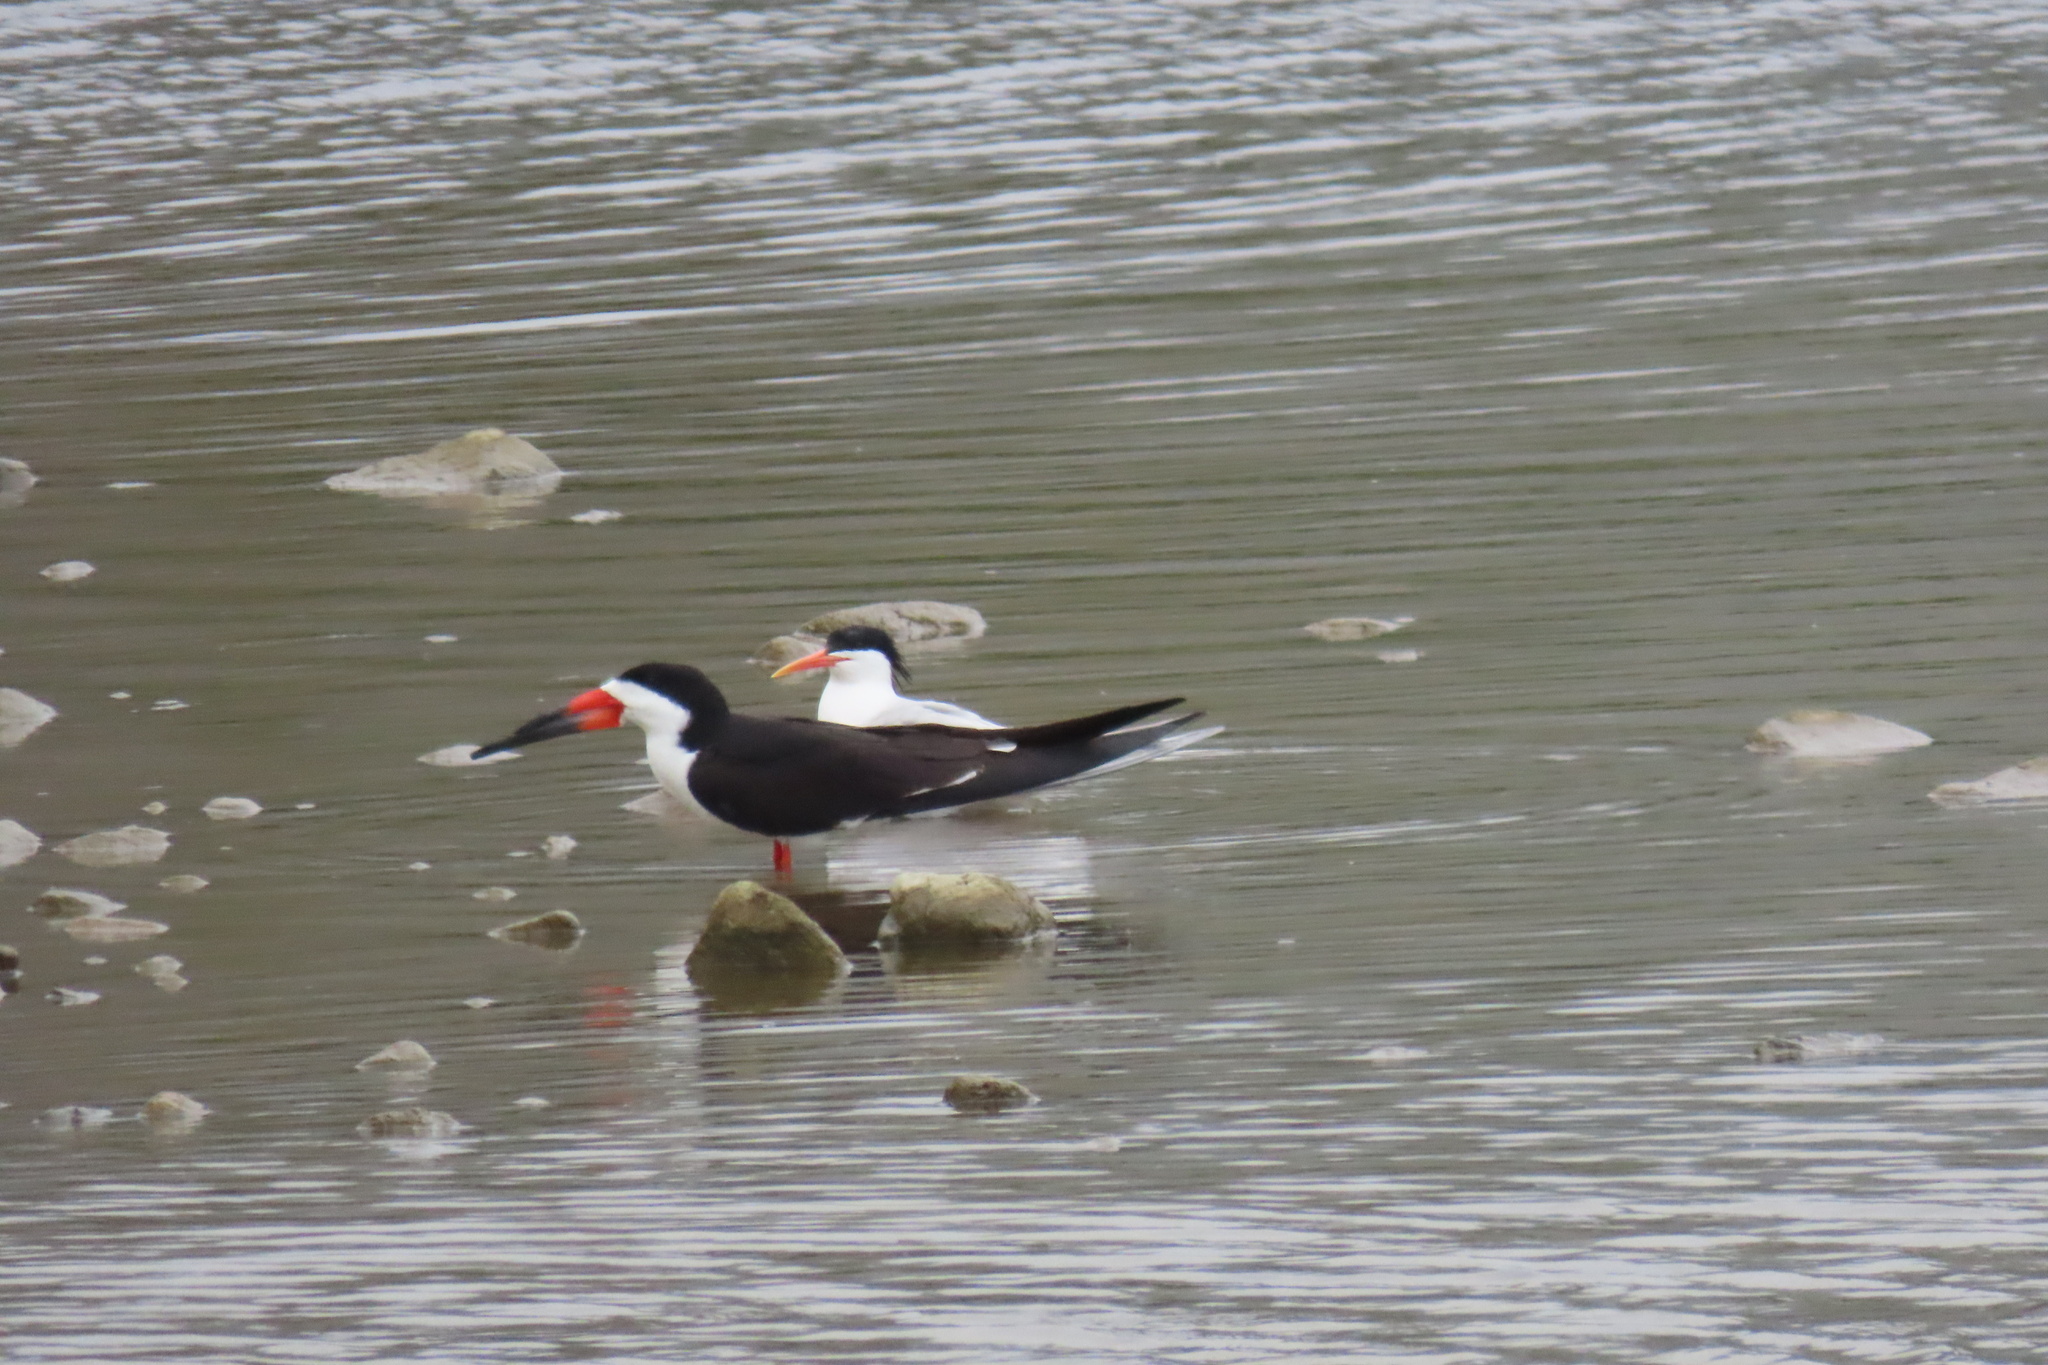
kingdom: Animalia
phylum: Chordata
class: Aves
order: Charadriiformes
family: Laridae
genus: Rynchops
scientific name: Rynchops niger
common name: Black skimmer
